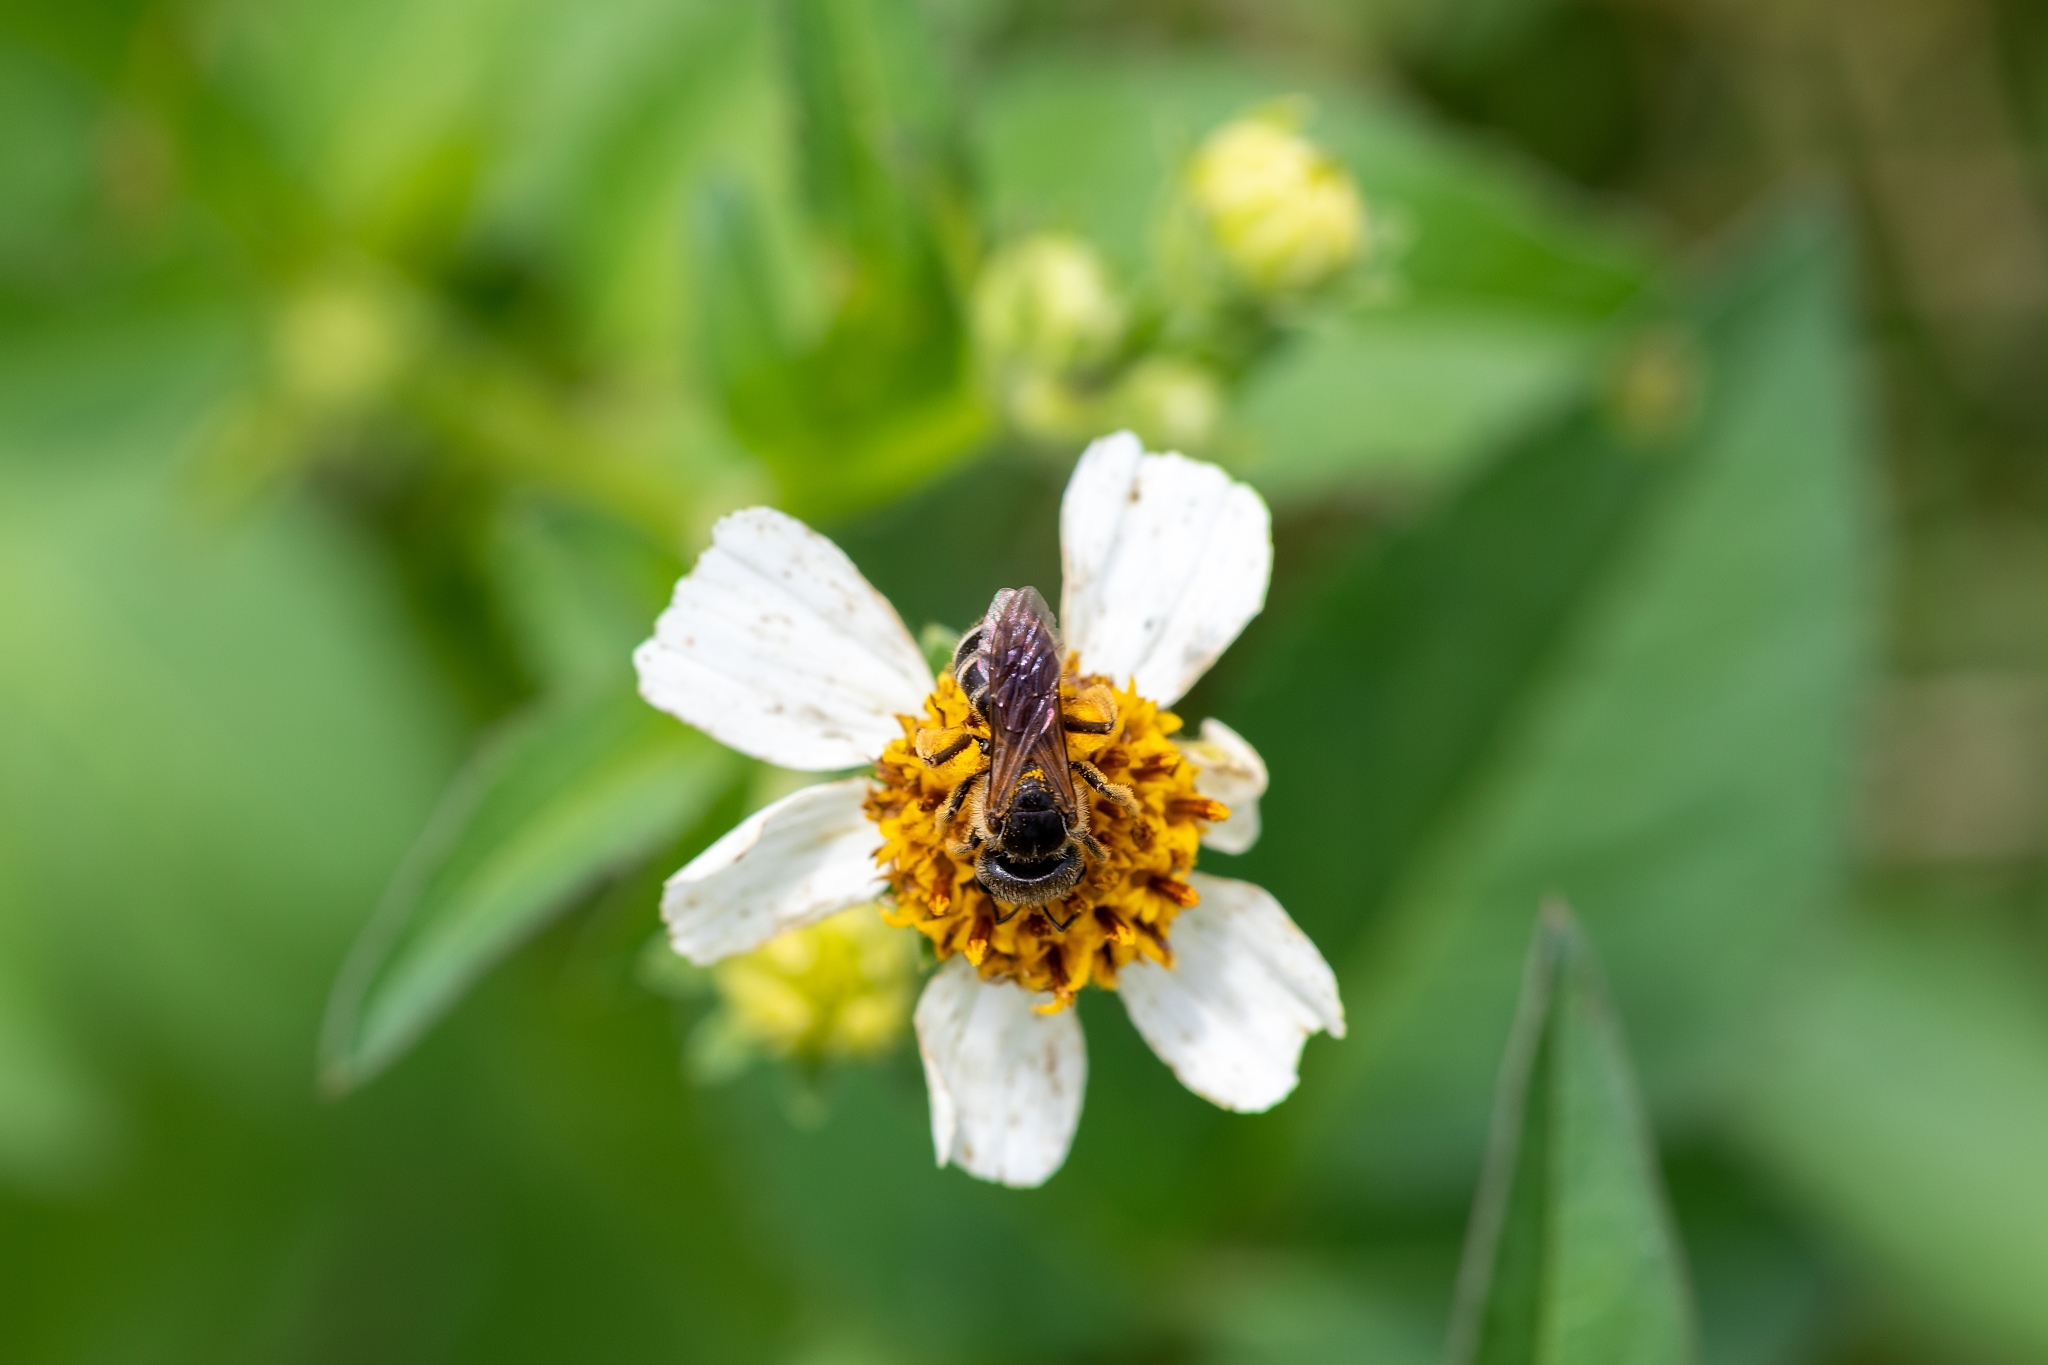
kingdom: Animalia
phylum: Arthropoda
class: Insecta
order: Hymenoptera
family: Halictidae
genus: Halictus
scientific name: Halictus poeyi
